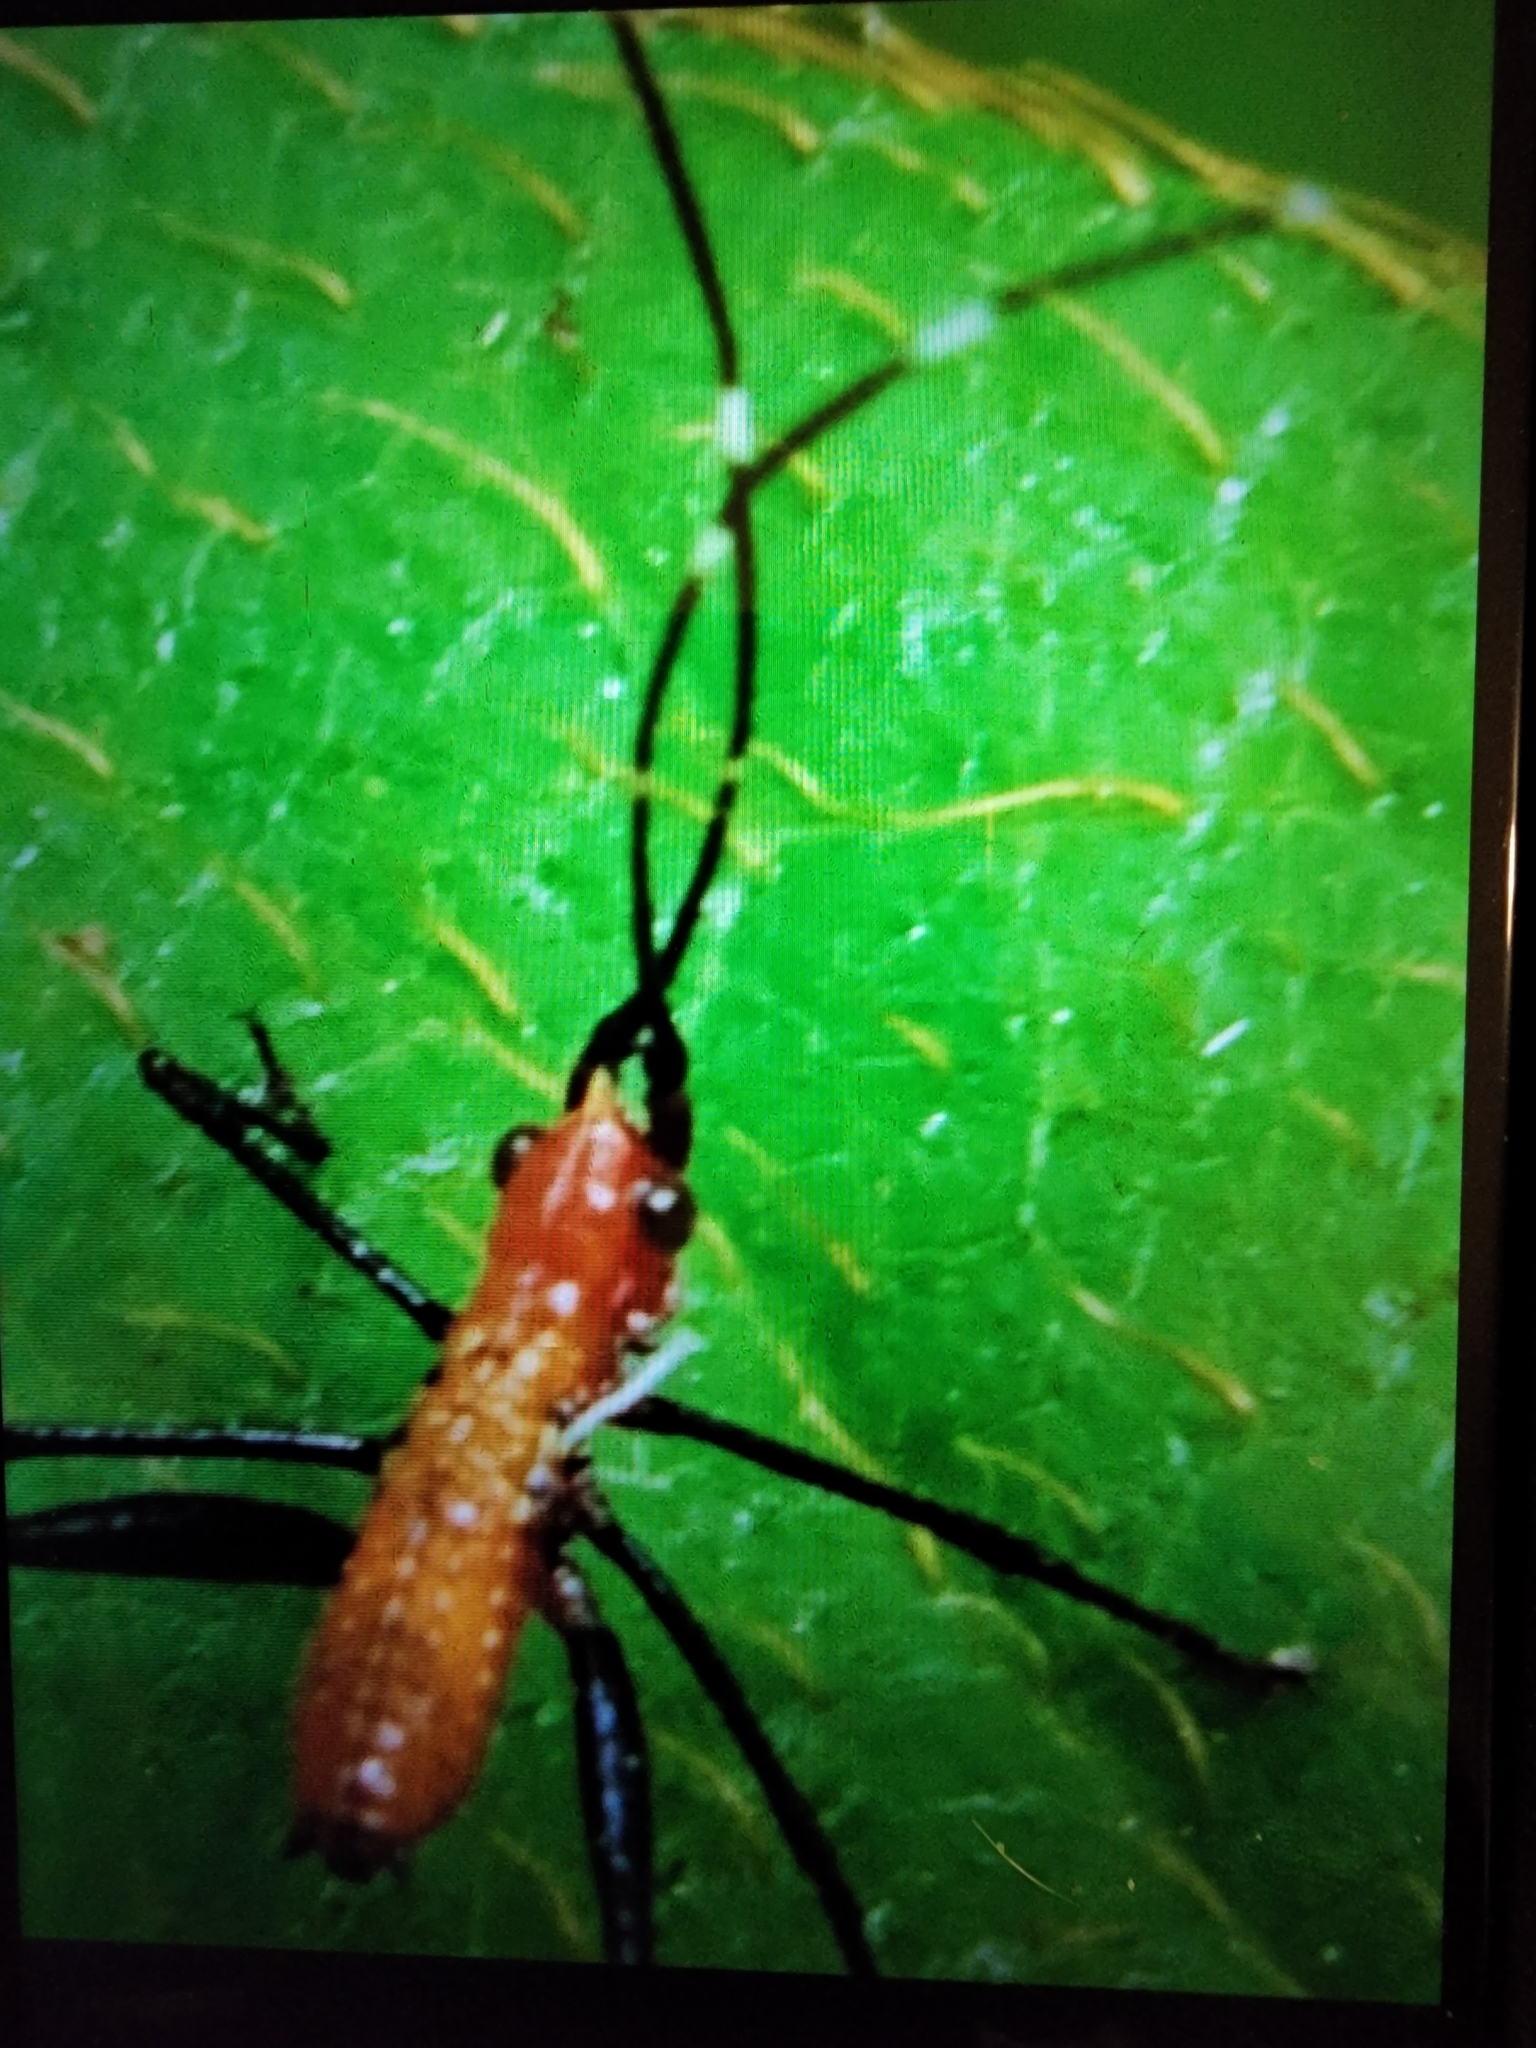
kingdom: Animalia
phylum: Arthropoda
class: Insecta
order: Orthoptera
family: Tettigoniidae
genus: Scudderia
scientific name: Scudderia cuneata
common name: Southeastern bush katydid
